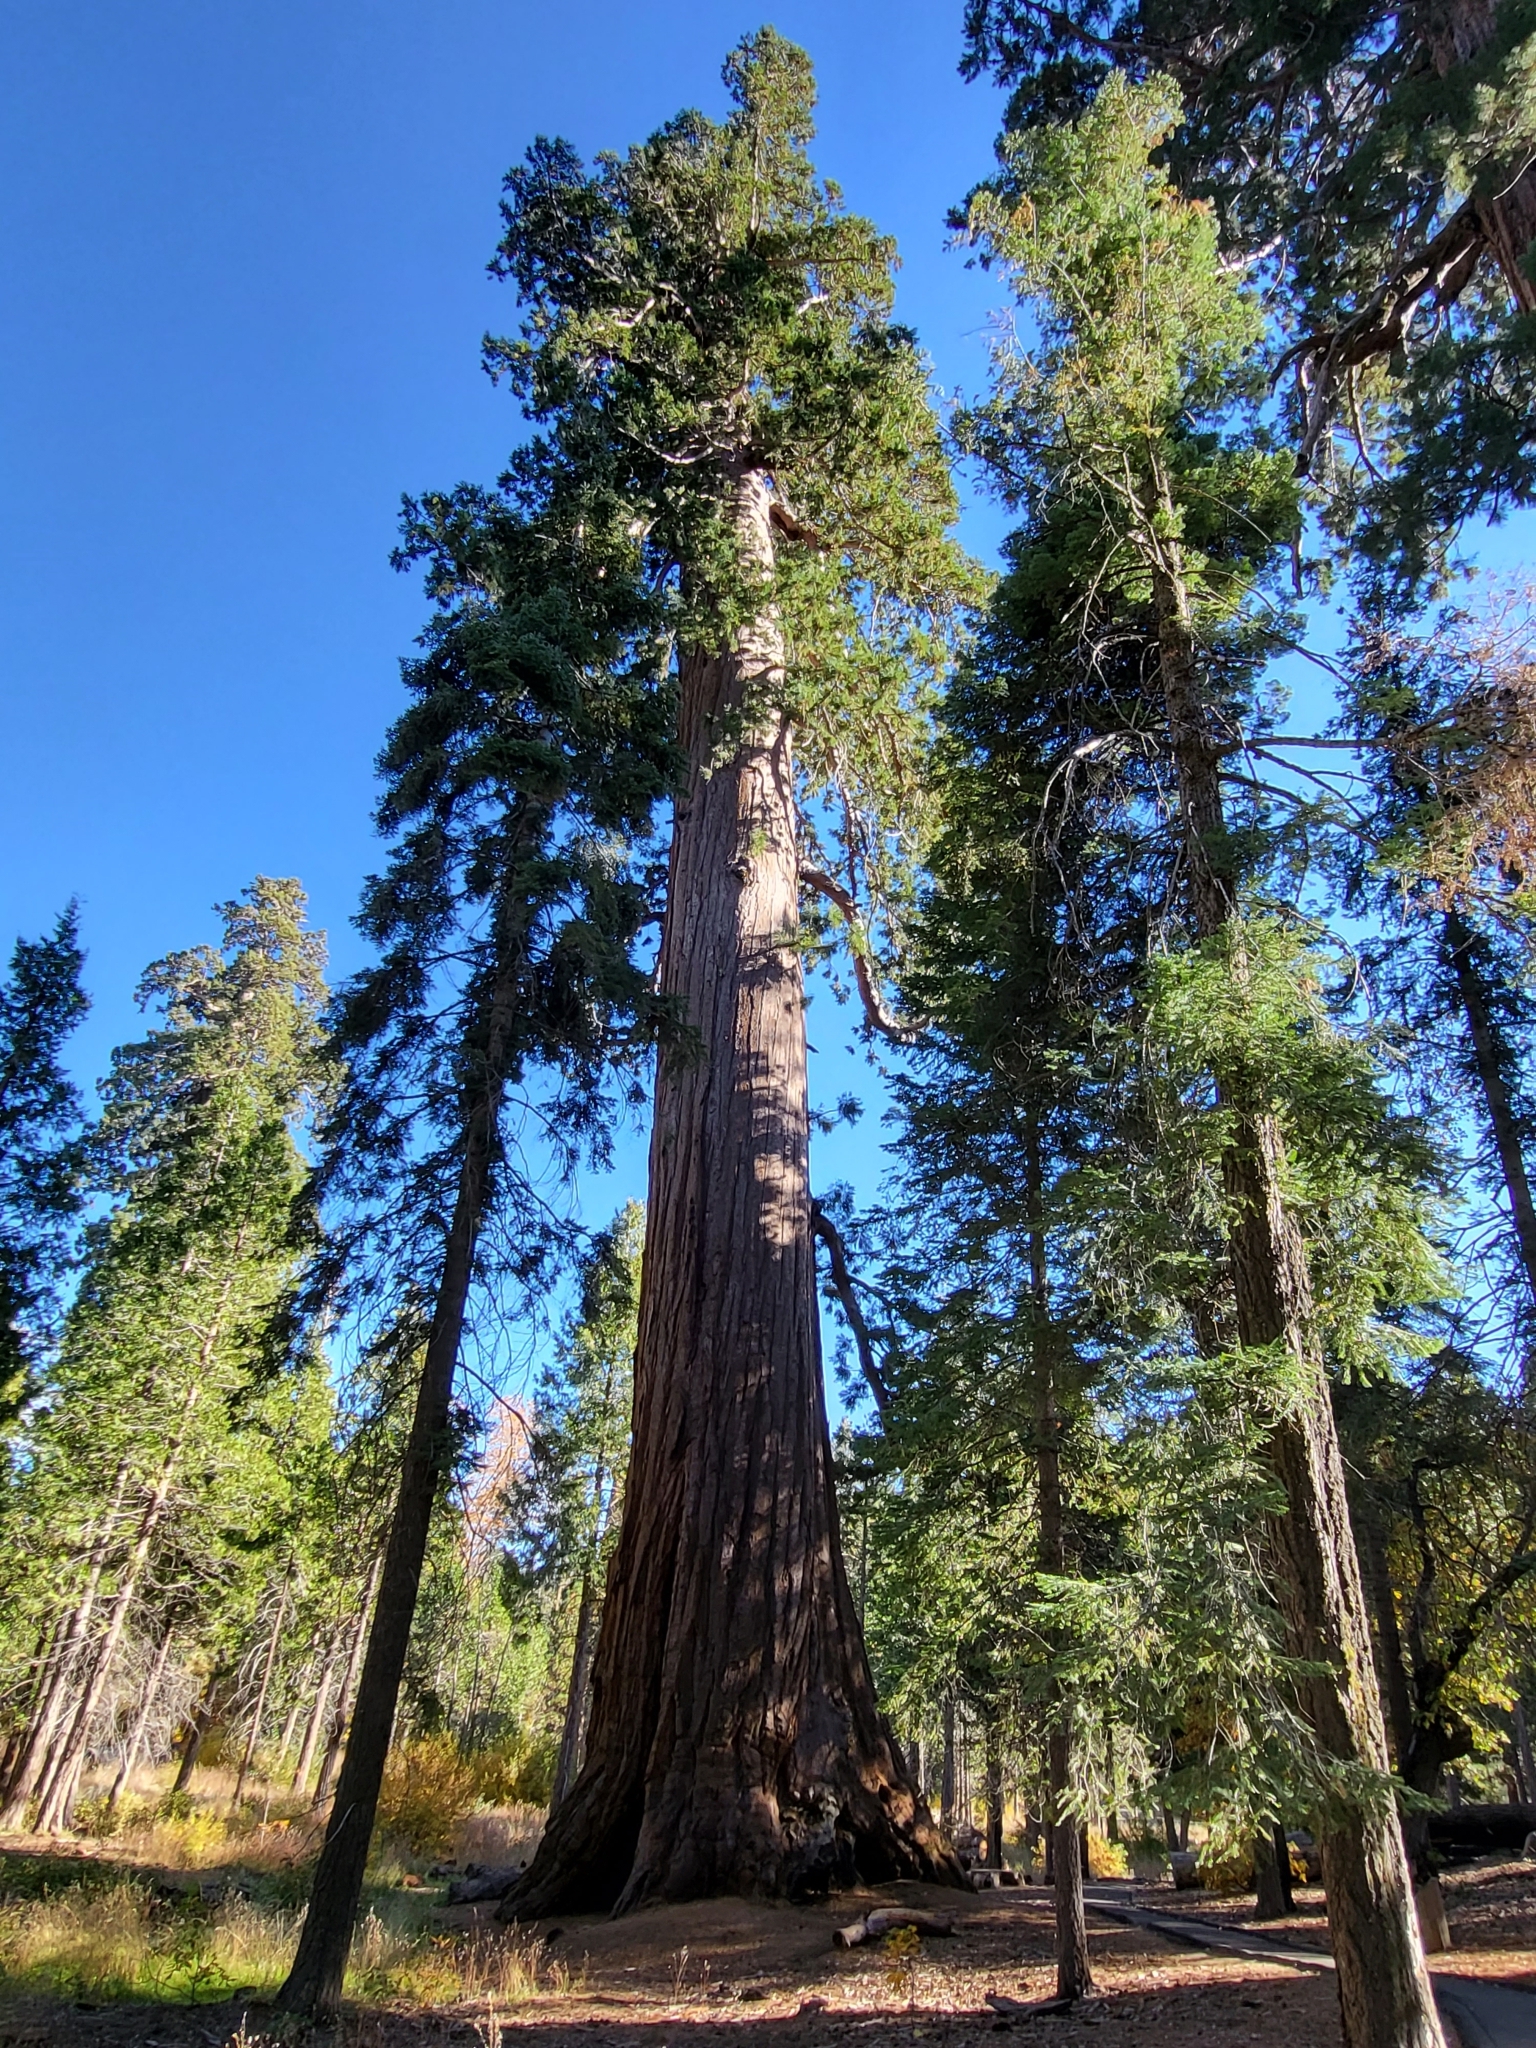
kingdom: Plantae
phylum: Tracheophyta
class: Pinopsida
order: Pinales
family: Cupressaceae
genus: Sequoiadendron
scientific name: Sequoiadendron giganteum
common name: Wellingtonia
